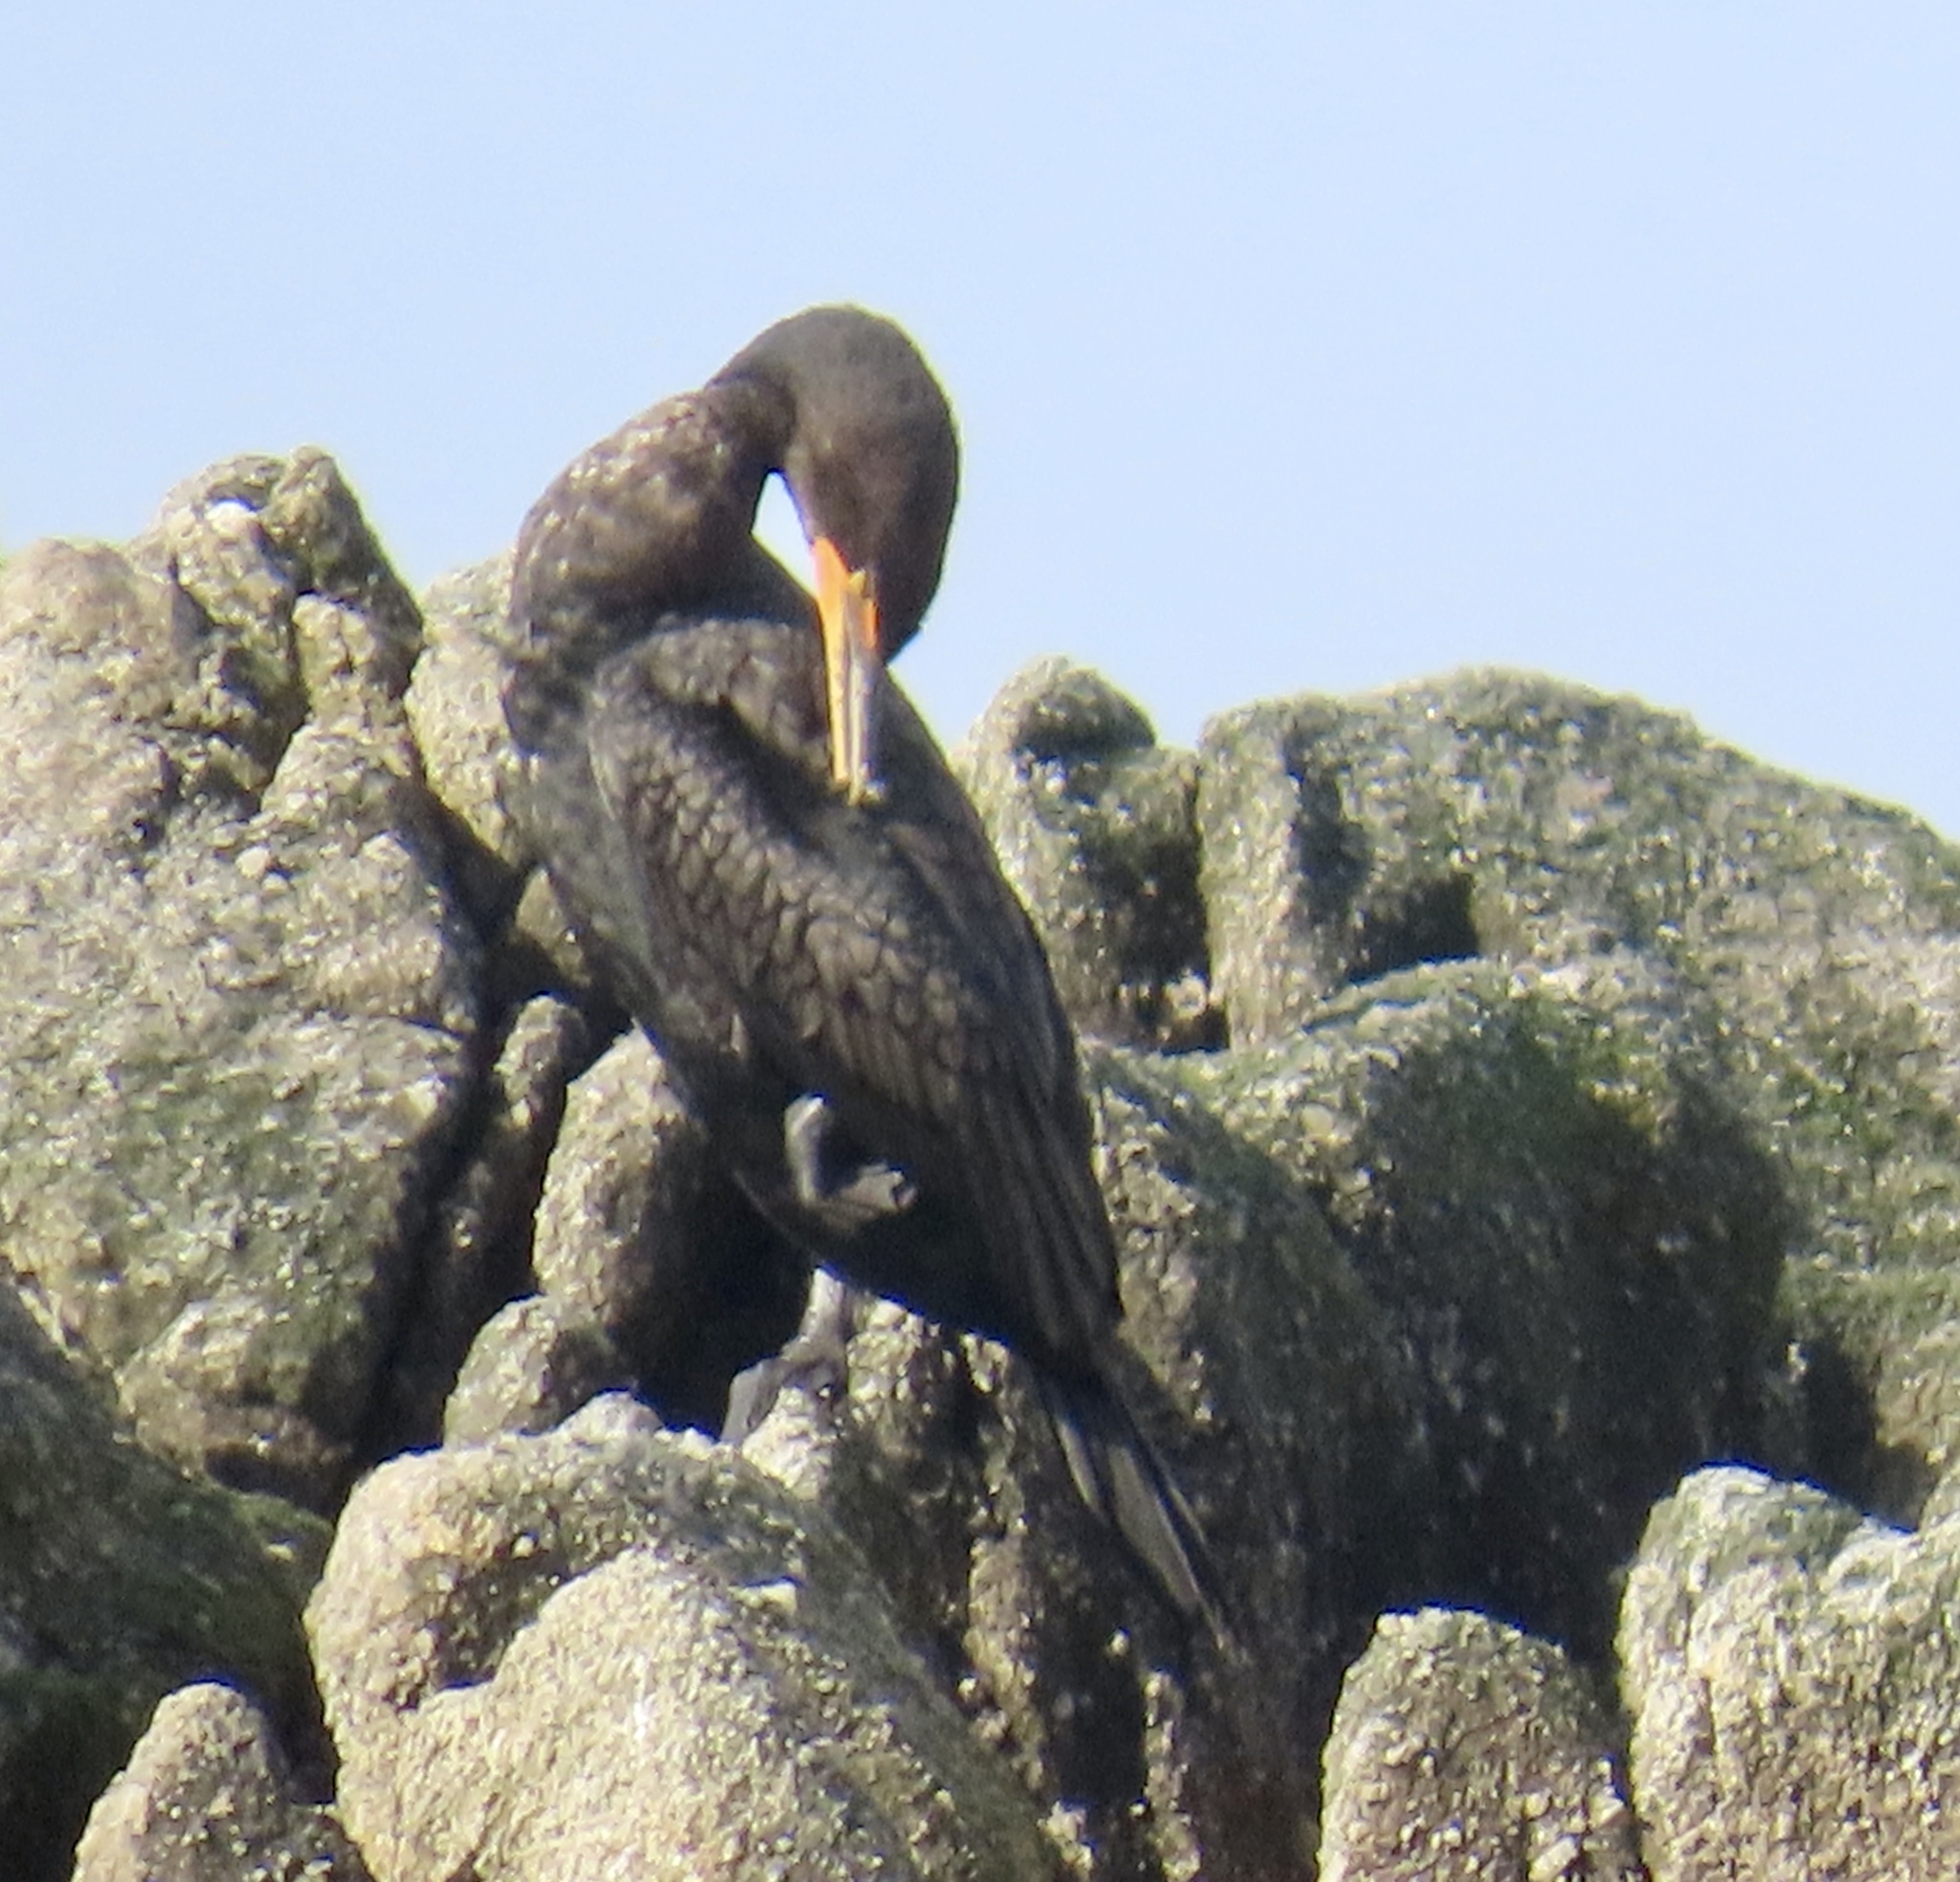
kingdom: Animalia
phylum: Chordata
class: Aves
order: Suliformes
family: Phalacrocoracidae
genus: Phalacrocorax
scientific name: Phalacrocorax auritus
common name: Double-crested cormorant
